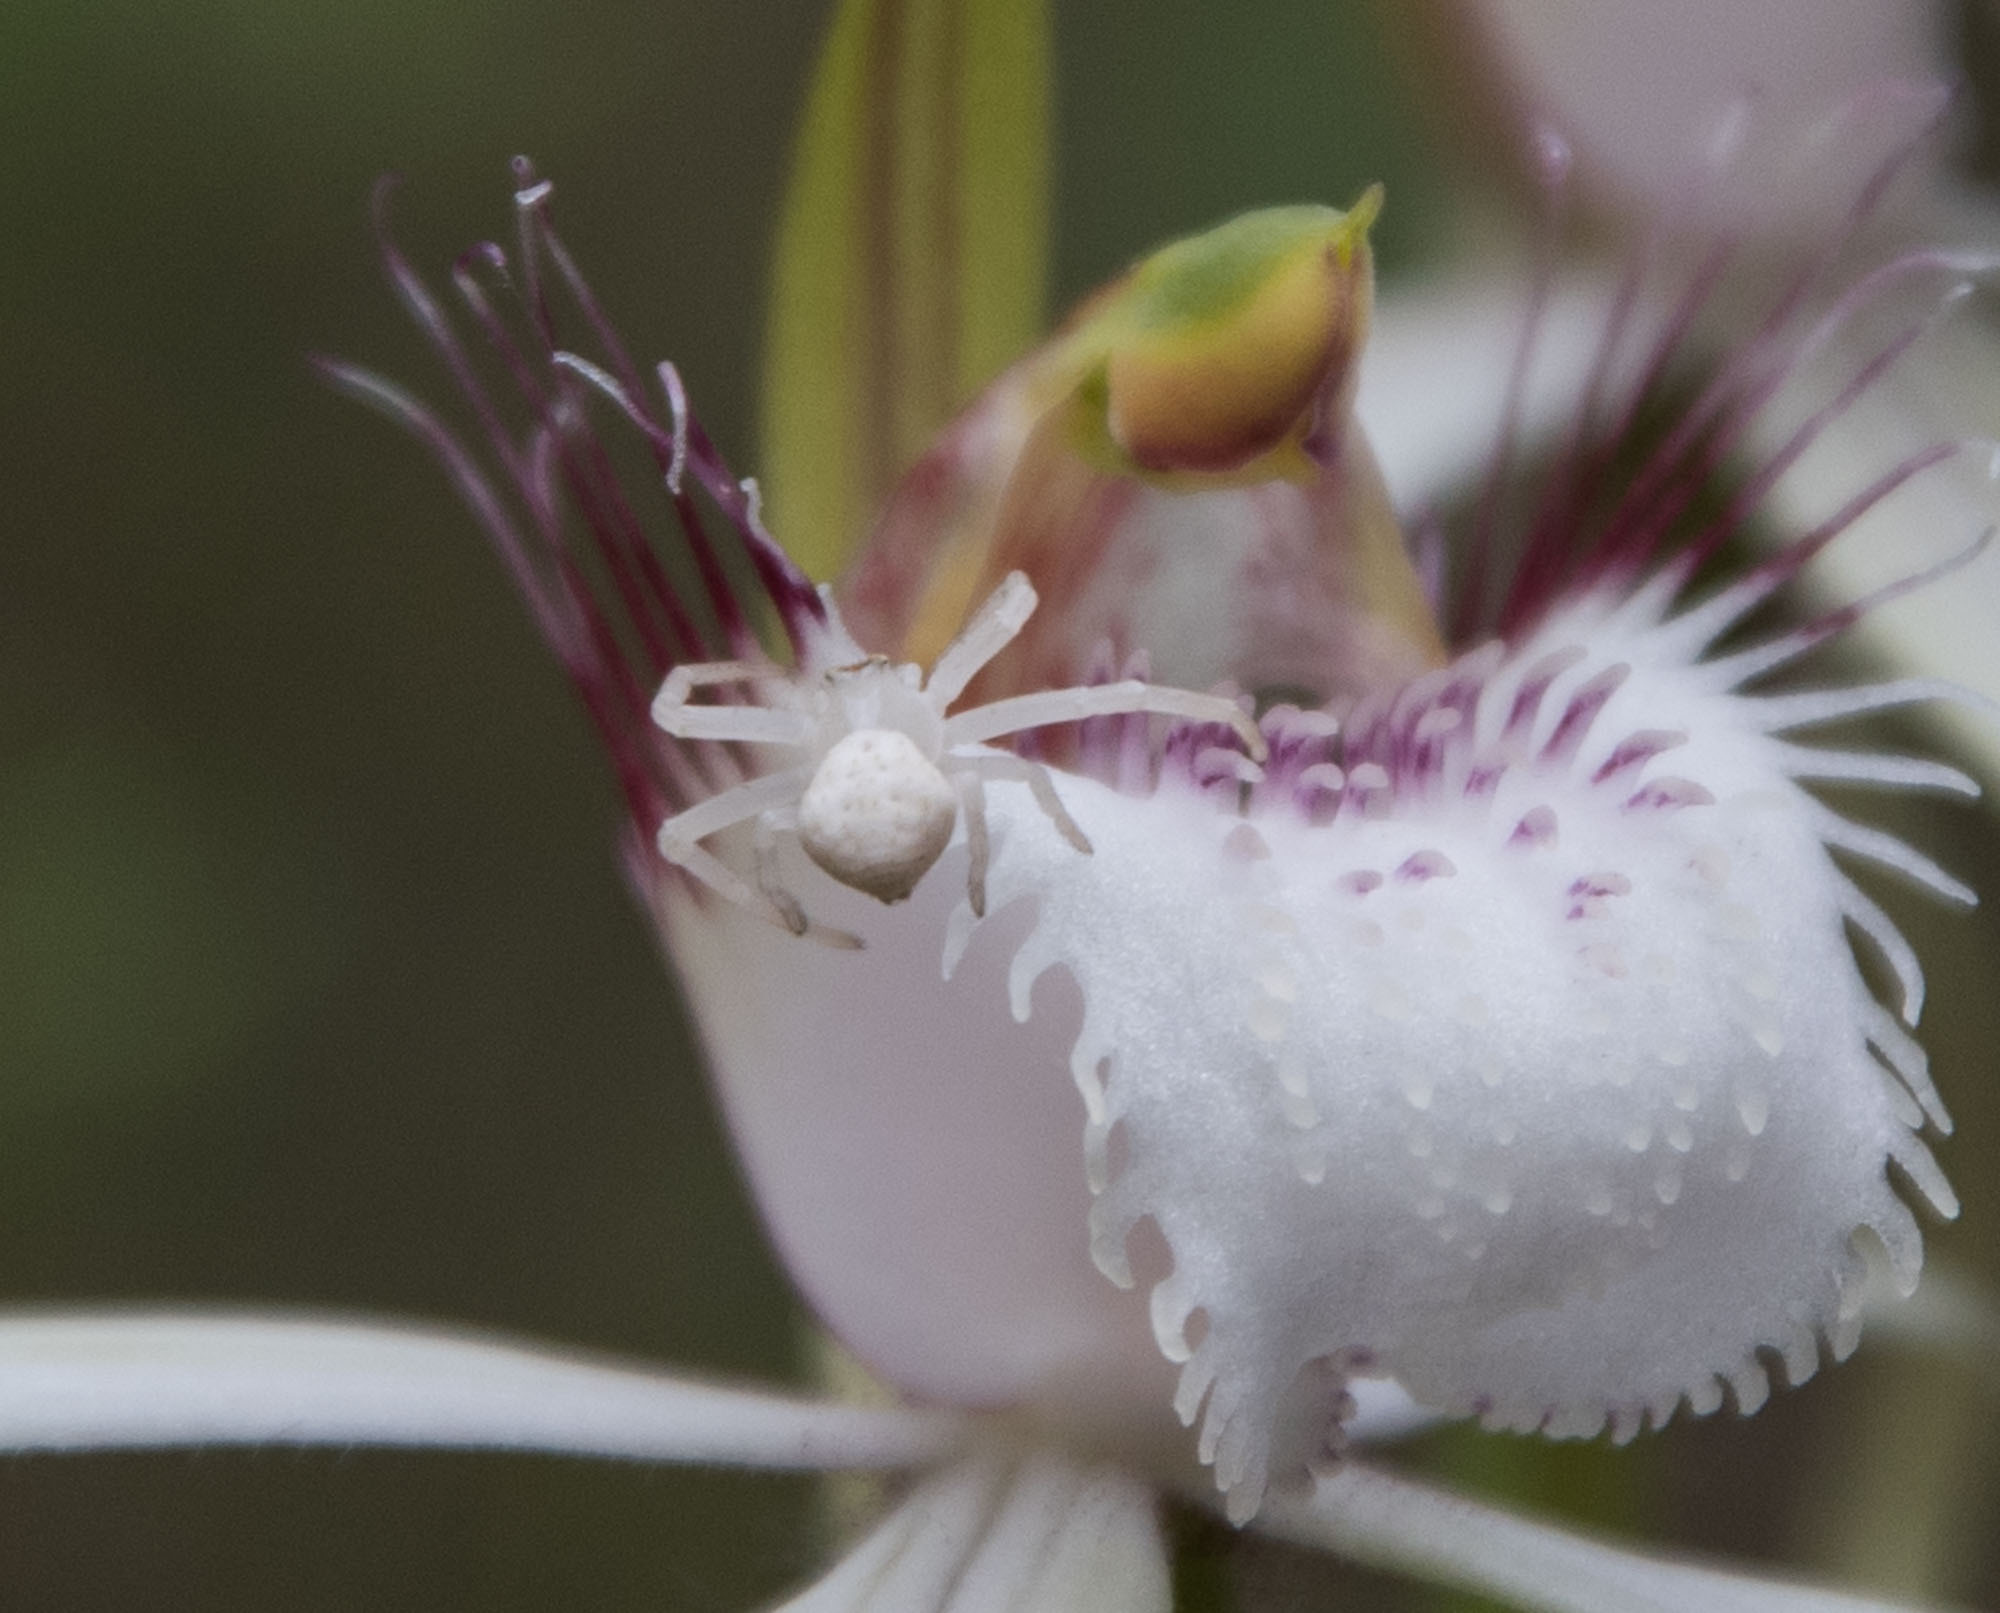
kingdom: Plantae
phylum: Tracheophyta
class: Liliopsida
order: Asparagales
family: Orchidaceae
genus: Caladenia
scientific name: Caladenia speciosa
